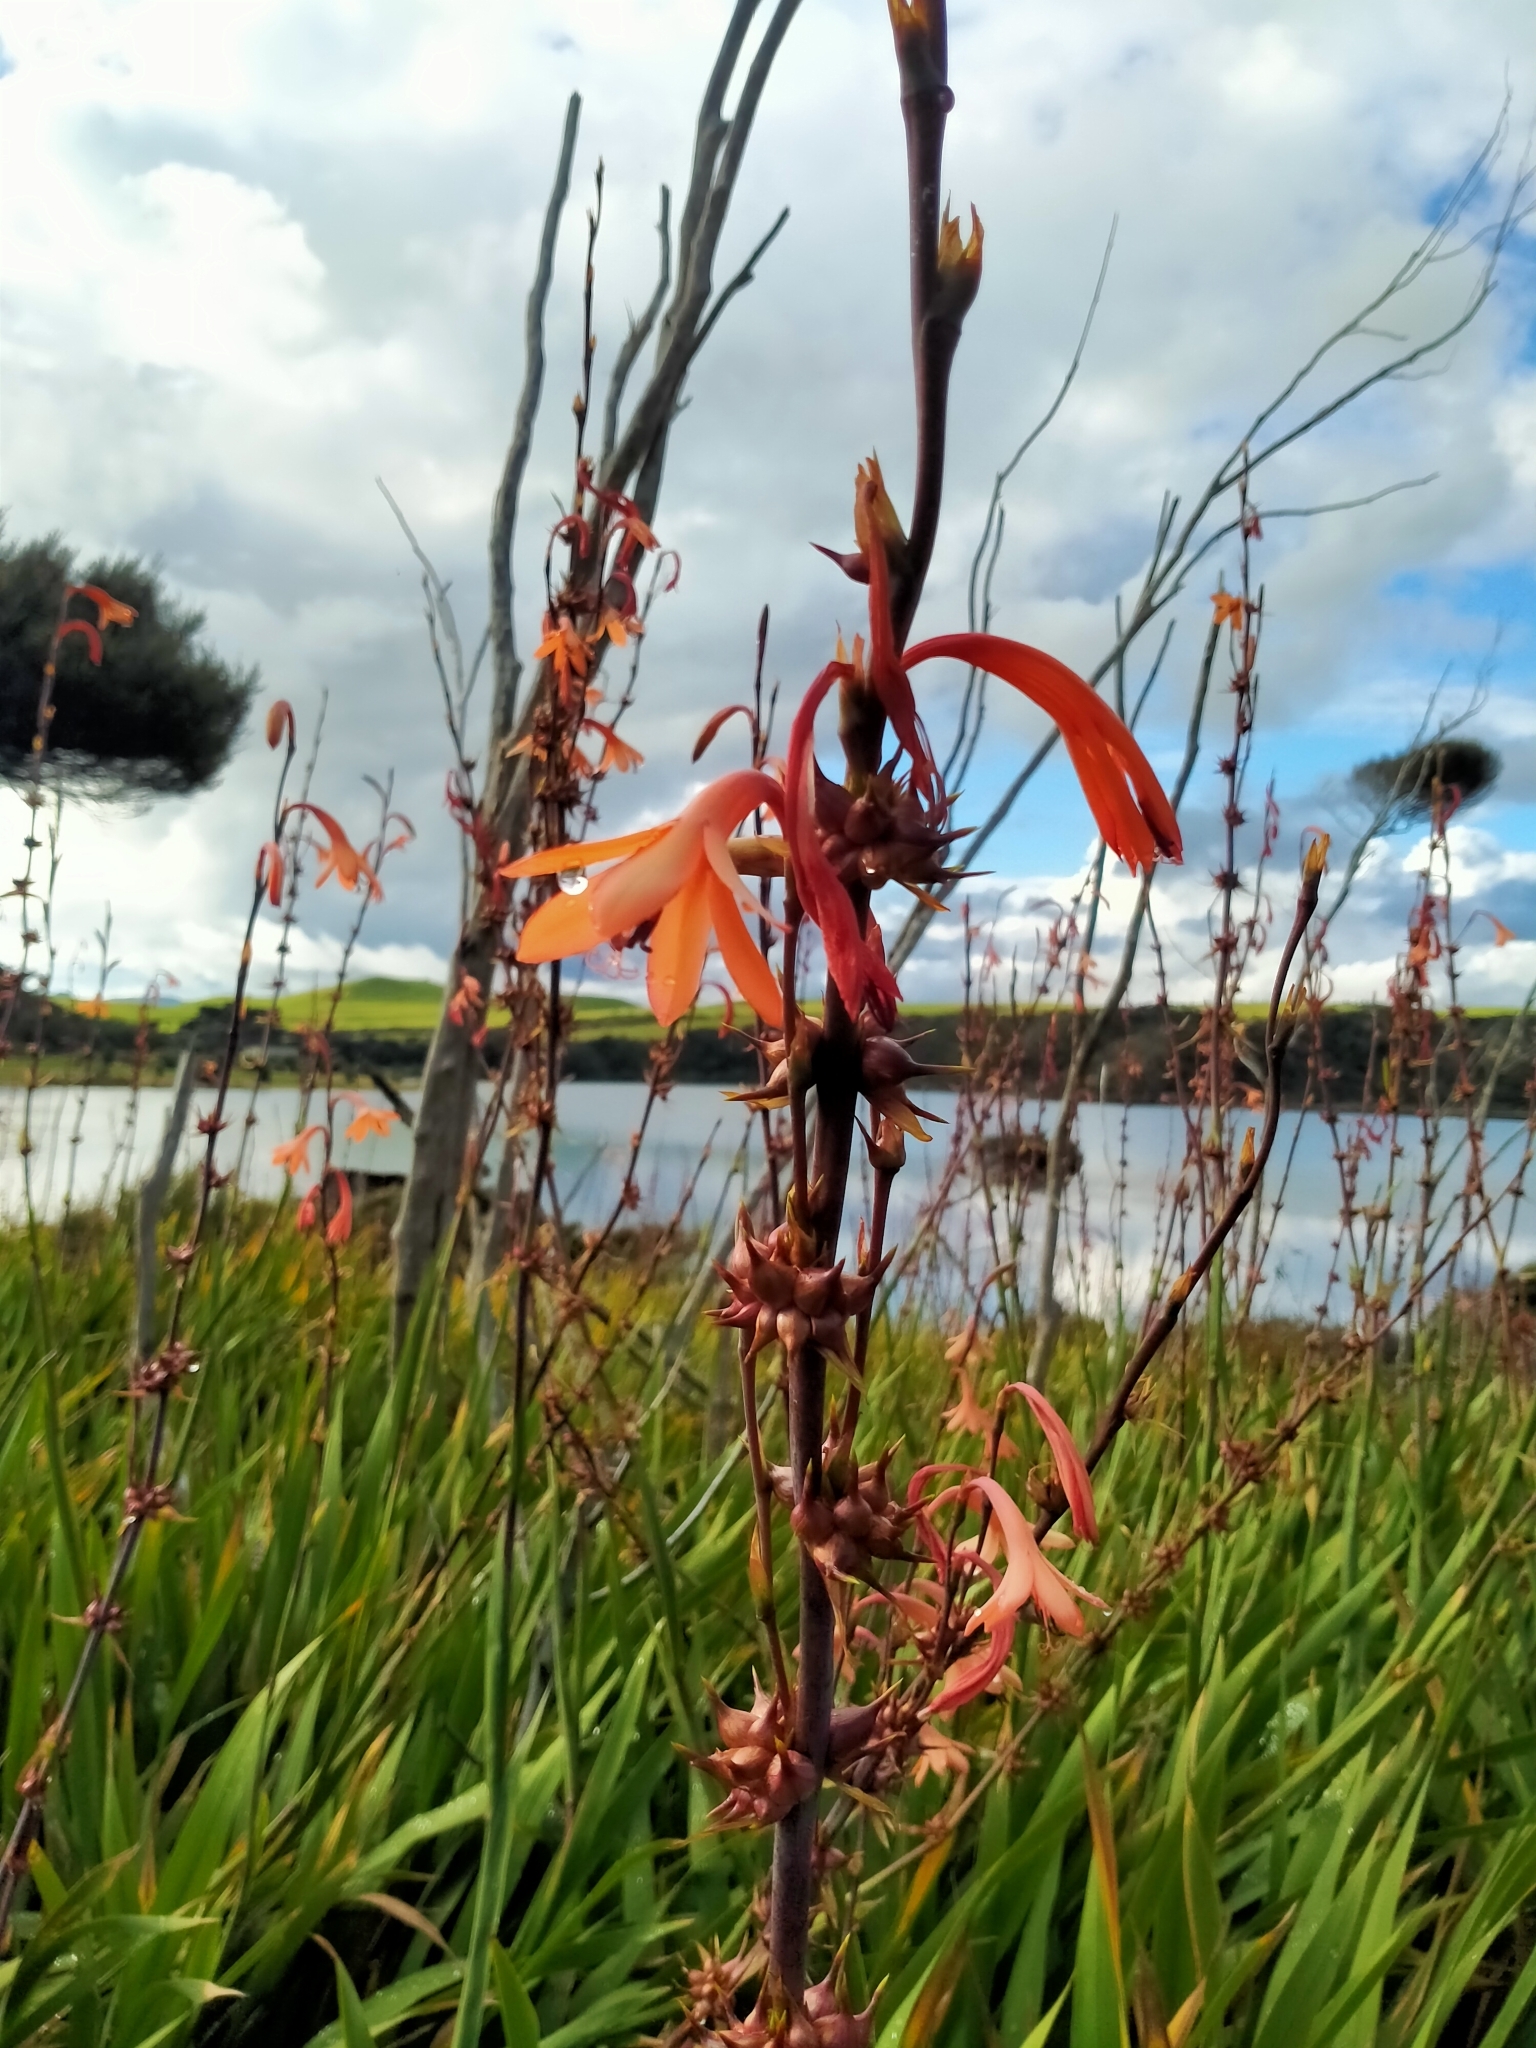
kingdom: Plantae
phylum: Tracheophyta
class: Liliopsida
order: Asparagales
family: Iridaceae
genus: Watsonia
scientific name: Watsonia meriana
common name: Bulbil bugle-lily
